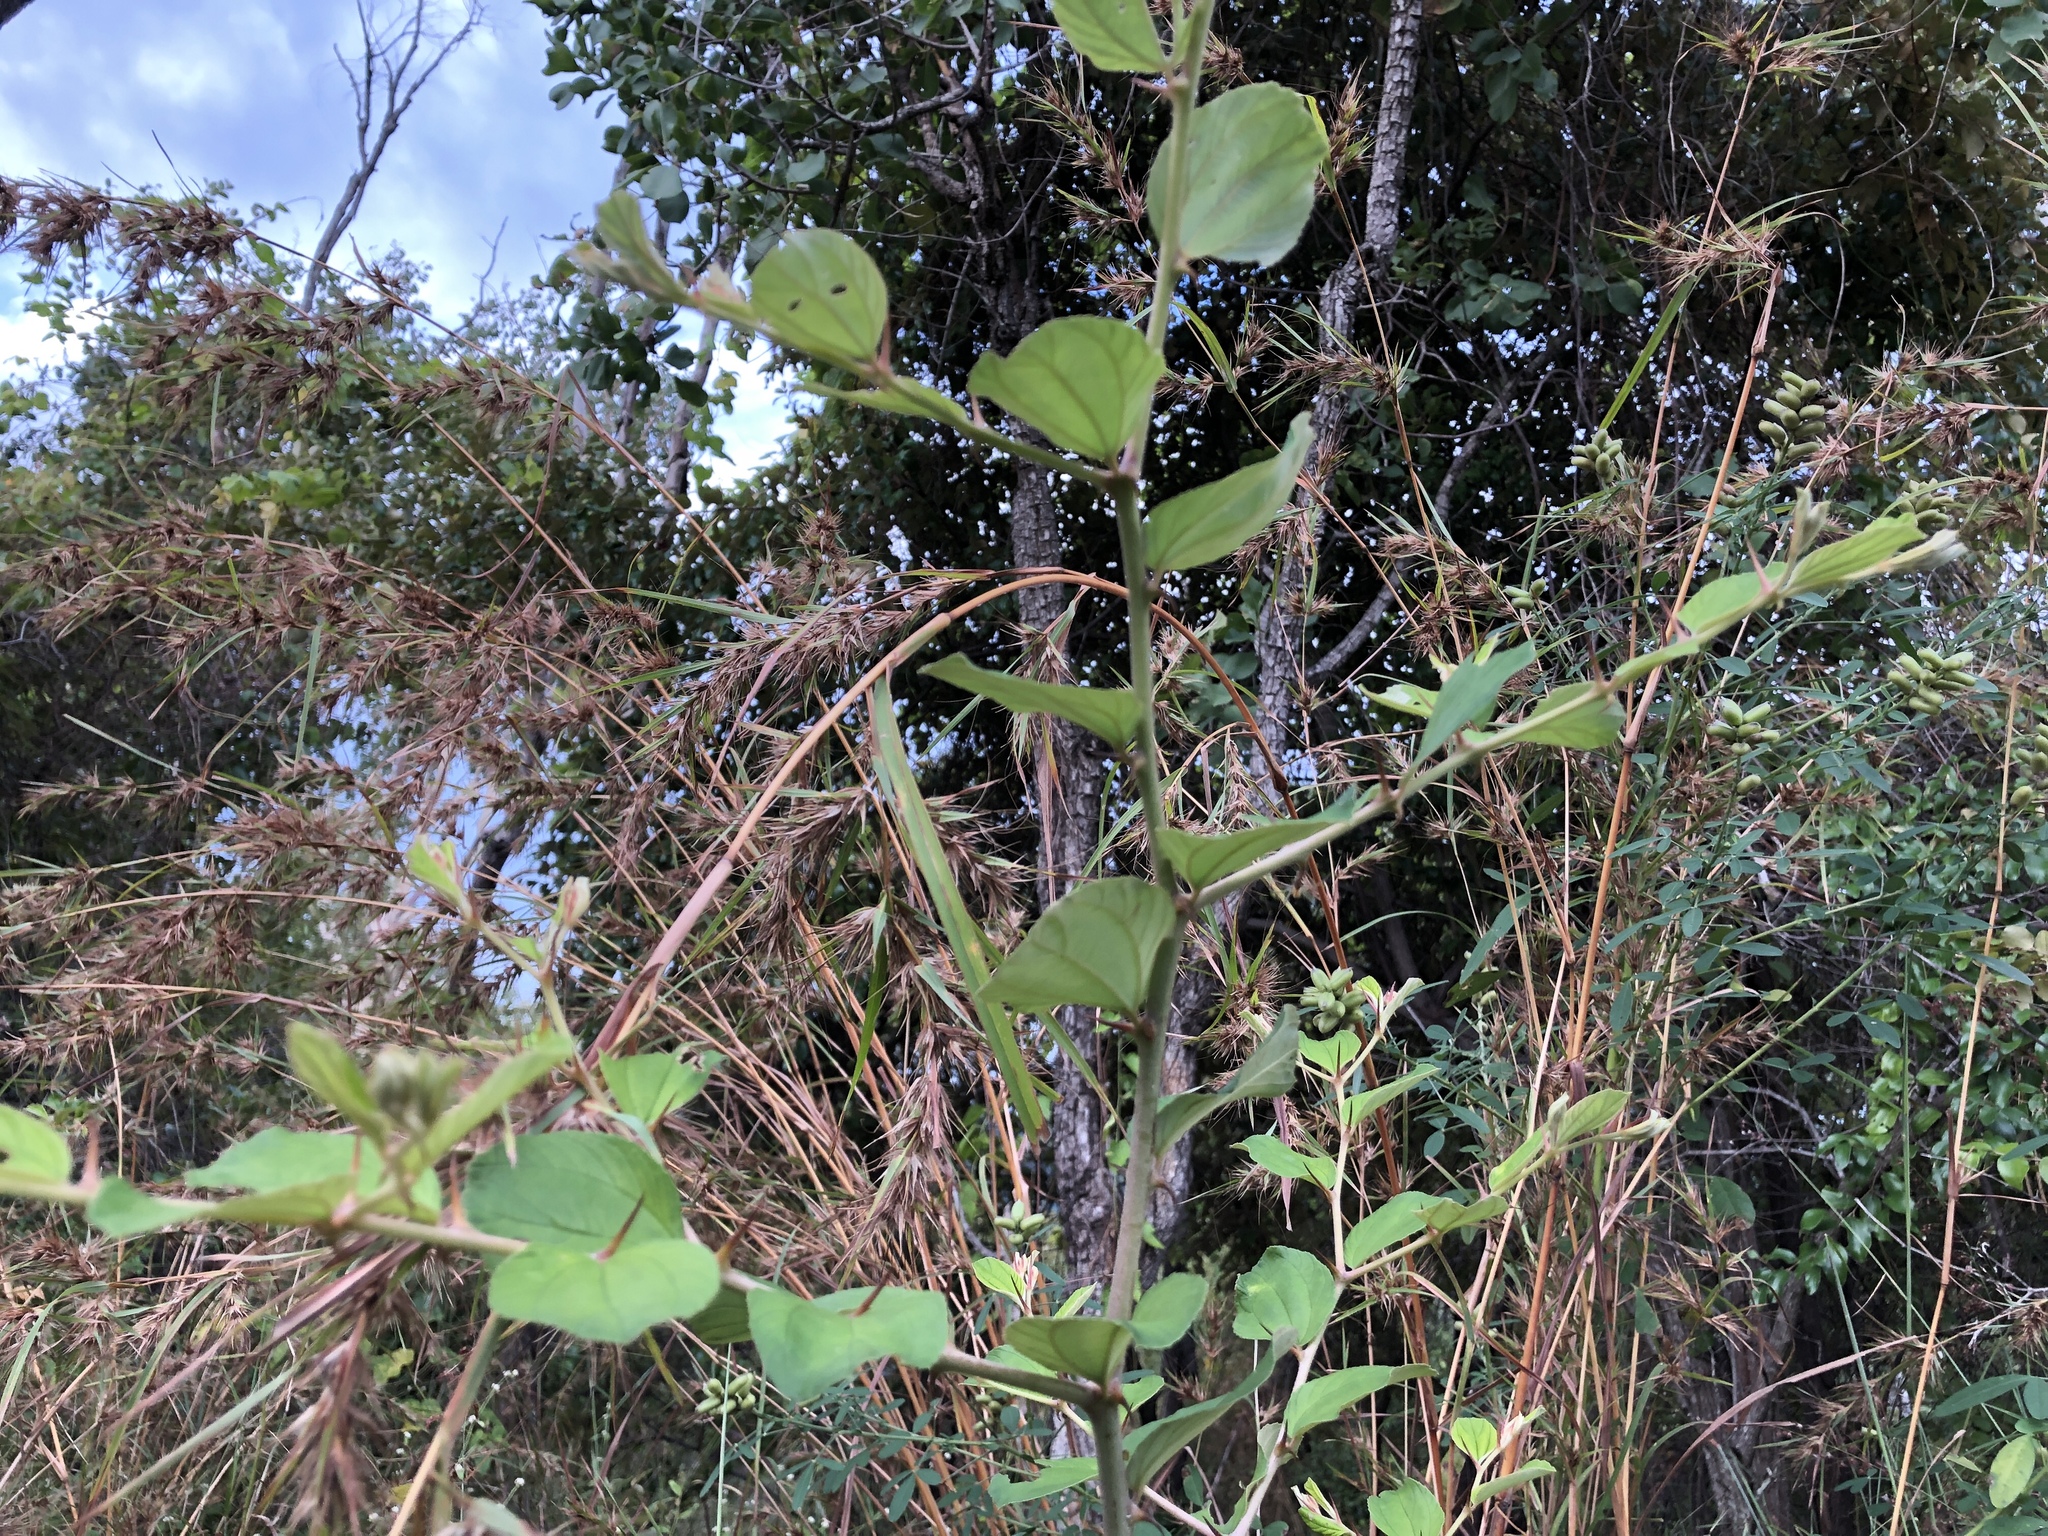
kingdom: Plantae
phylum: Tracheophyta
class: Magnoliopsida
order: Rosales
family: Rhamnaceae
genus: Ziziphus
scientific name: Ziziphus mauritiana
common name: Indian jujube
